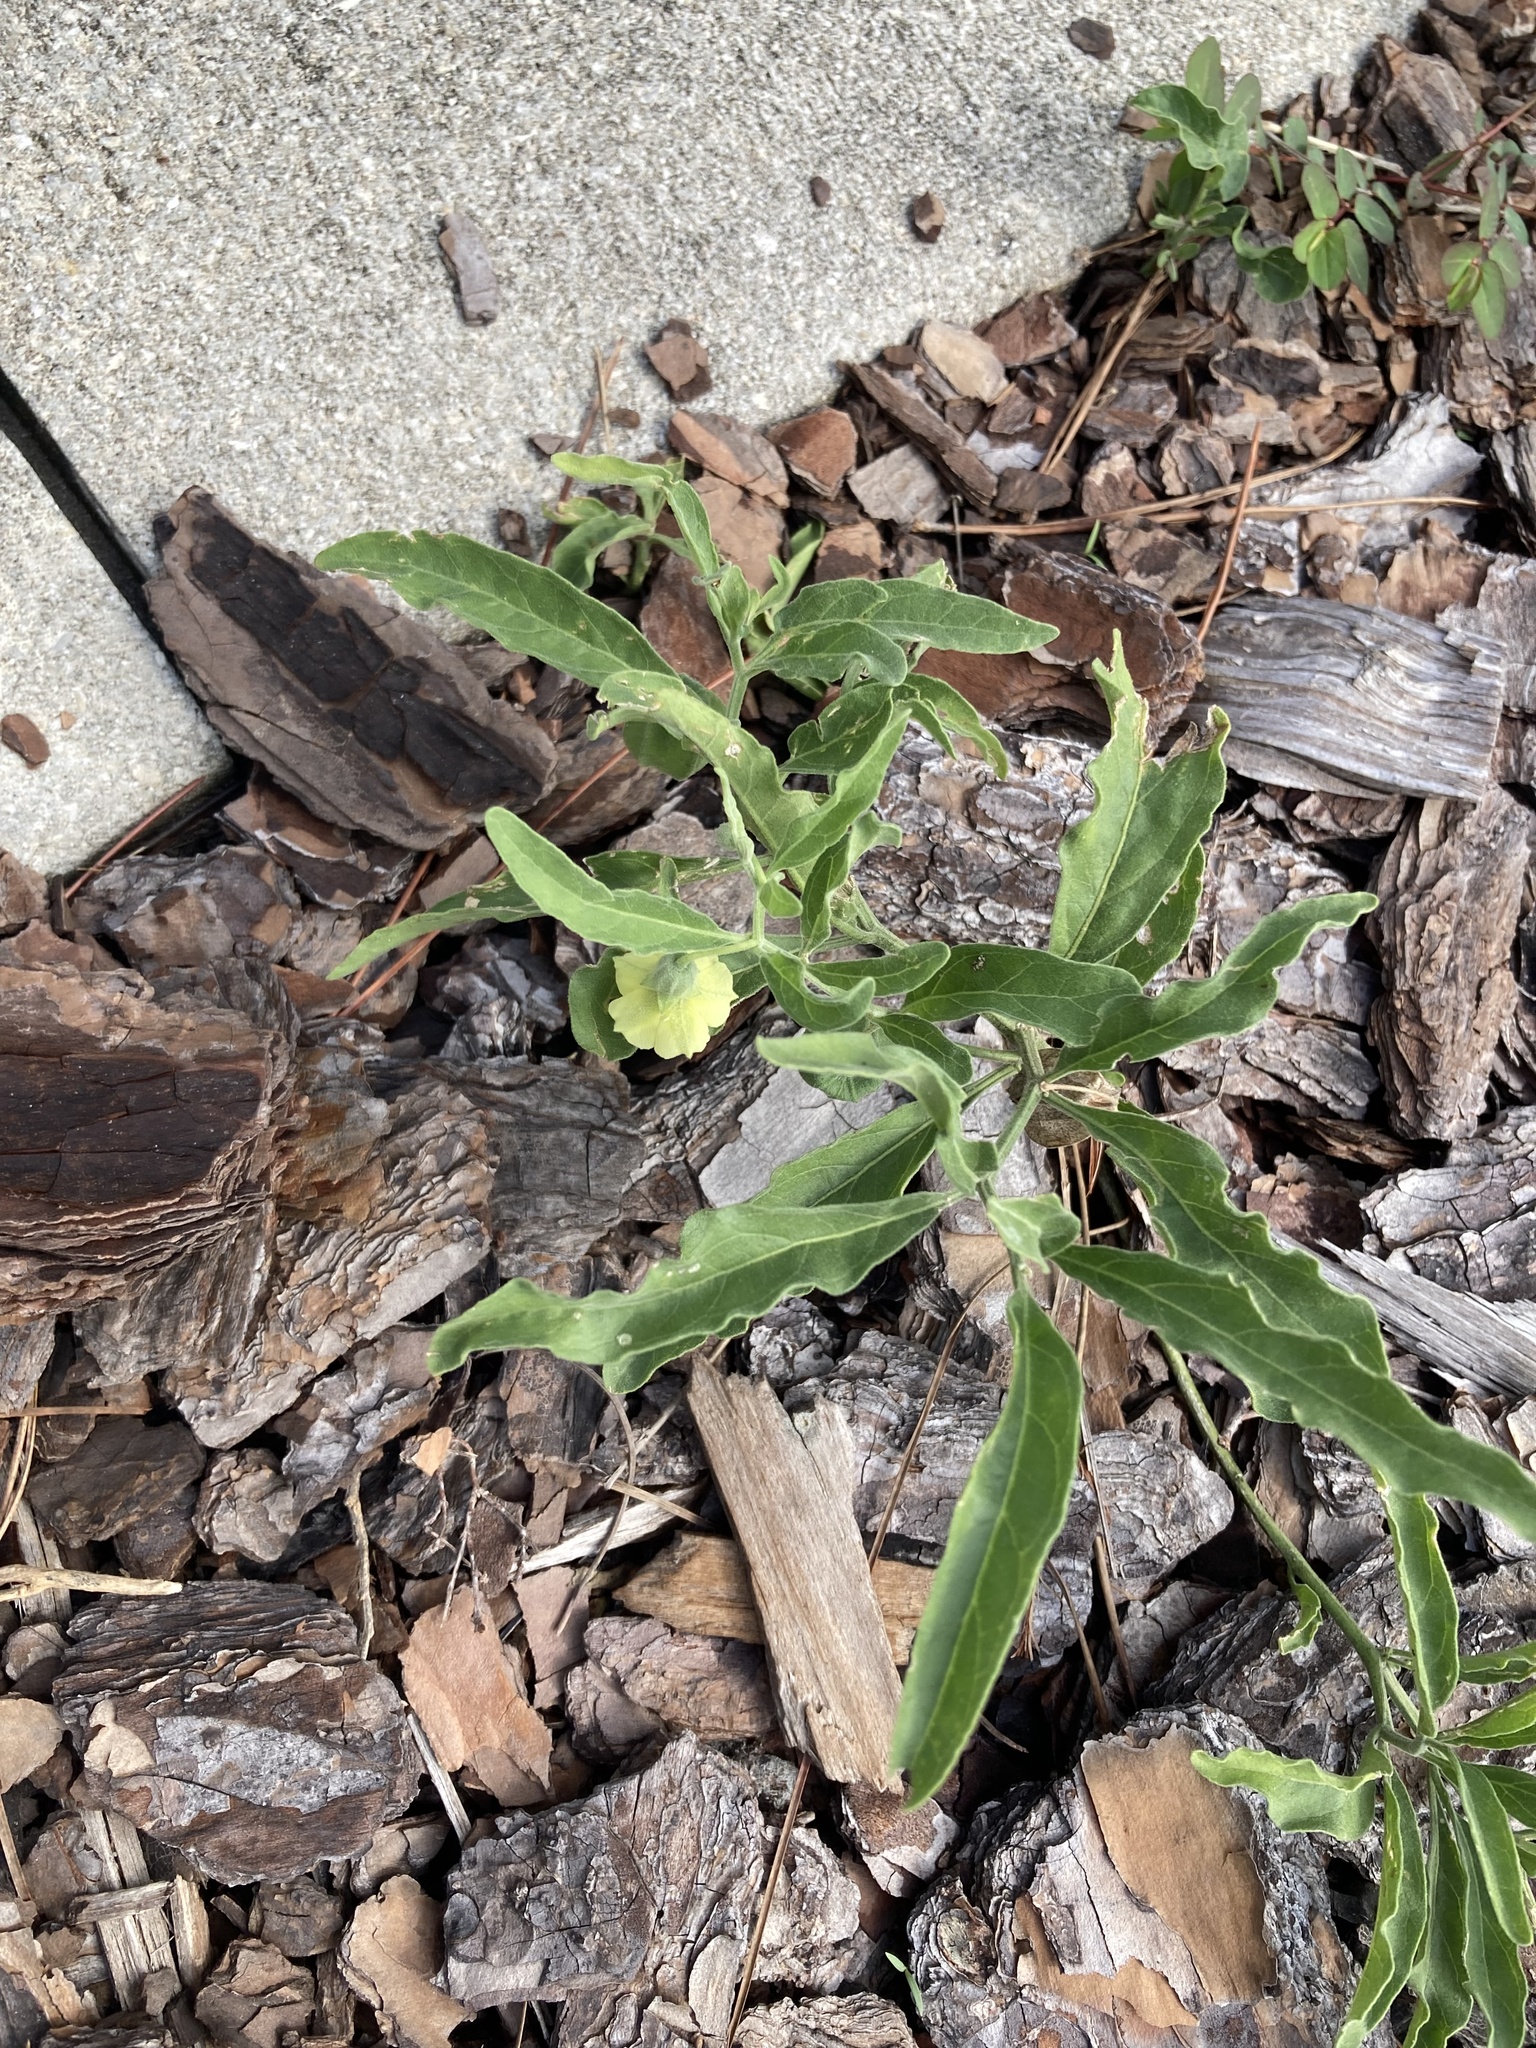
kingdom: Plantae
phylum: Tracheophyta
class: Magnoliopsida
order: Solanales
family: Solanaceae
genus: Physalis
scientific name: Physalis walteri
